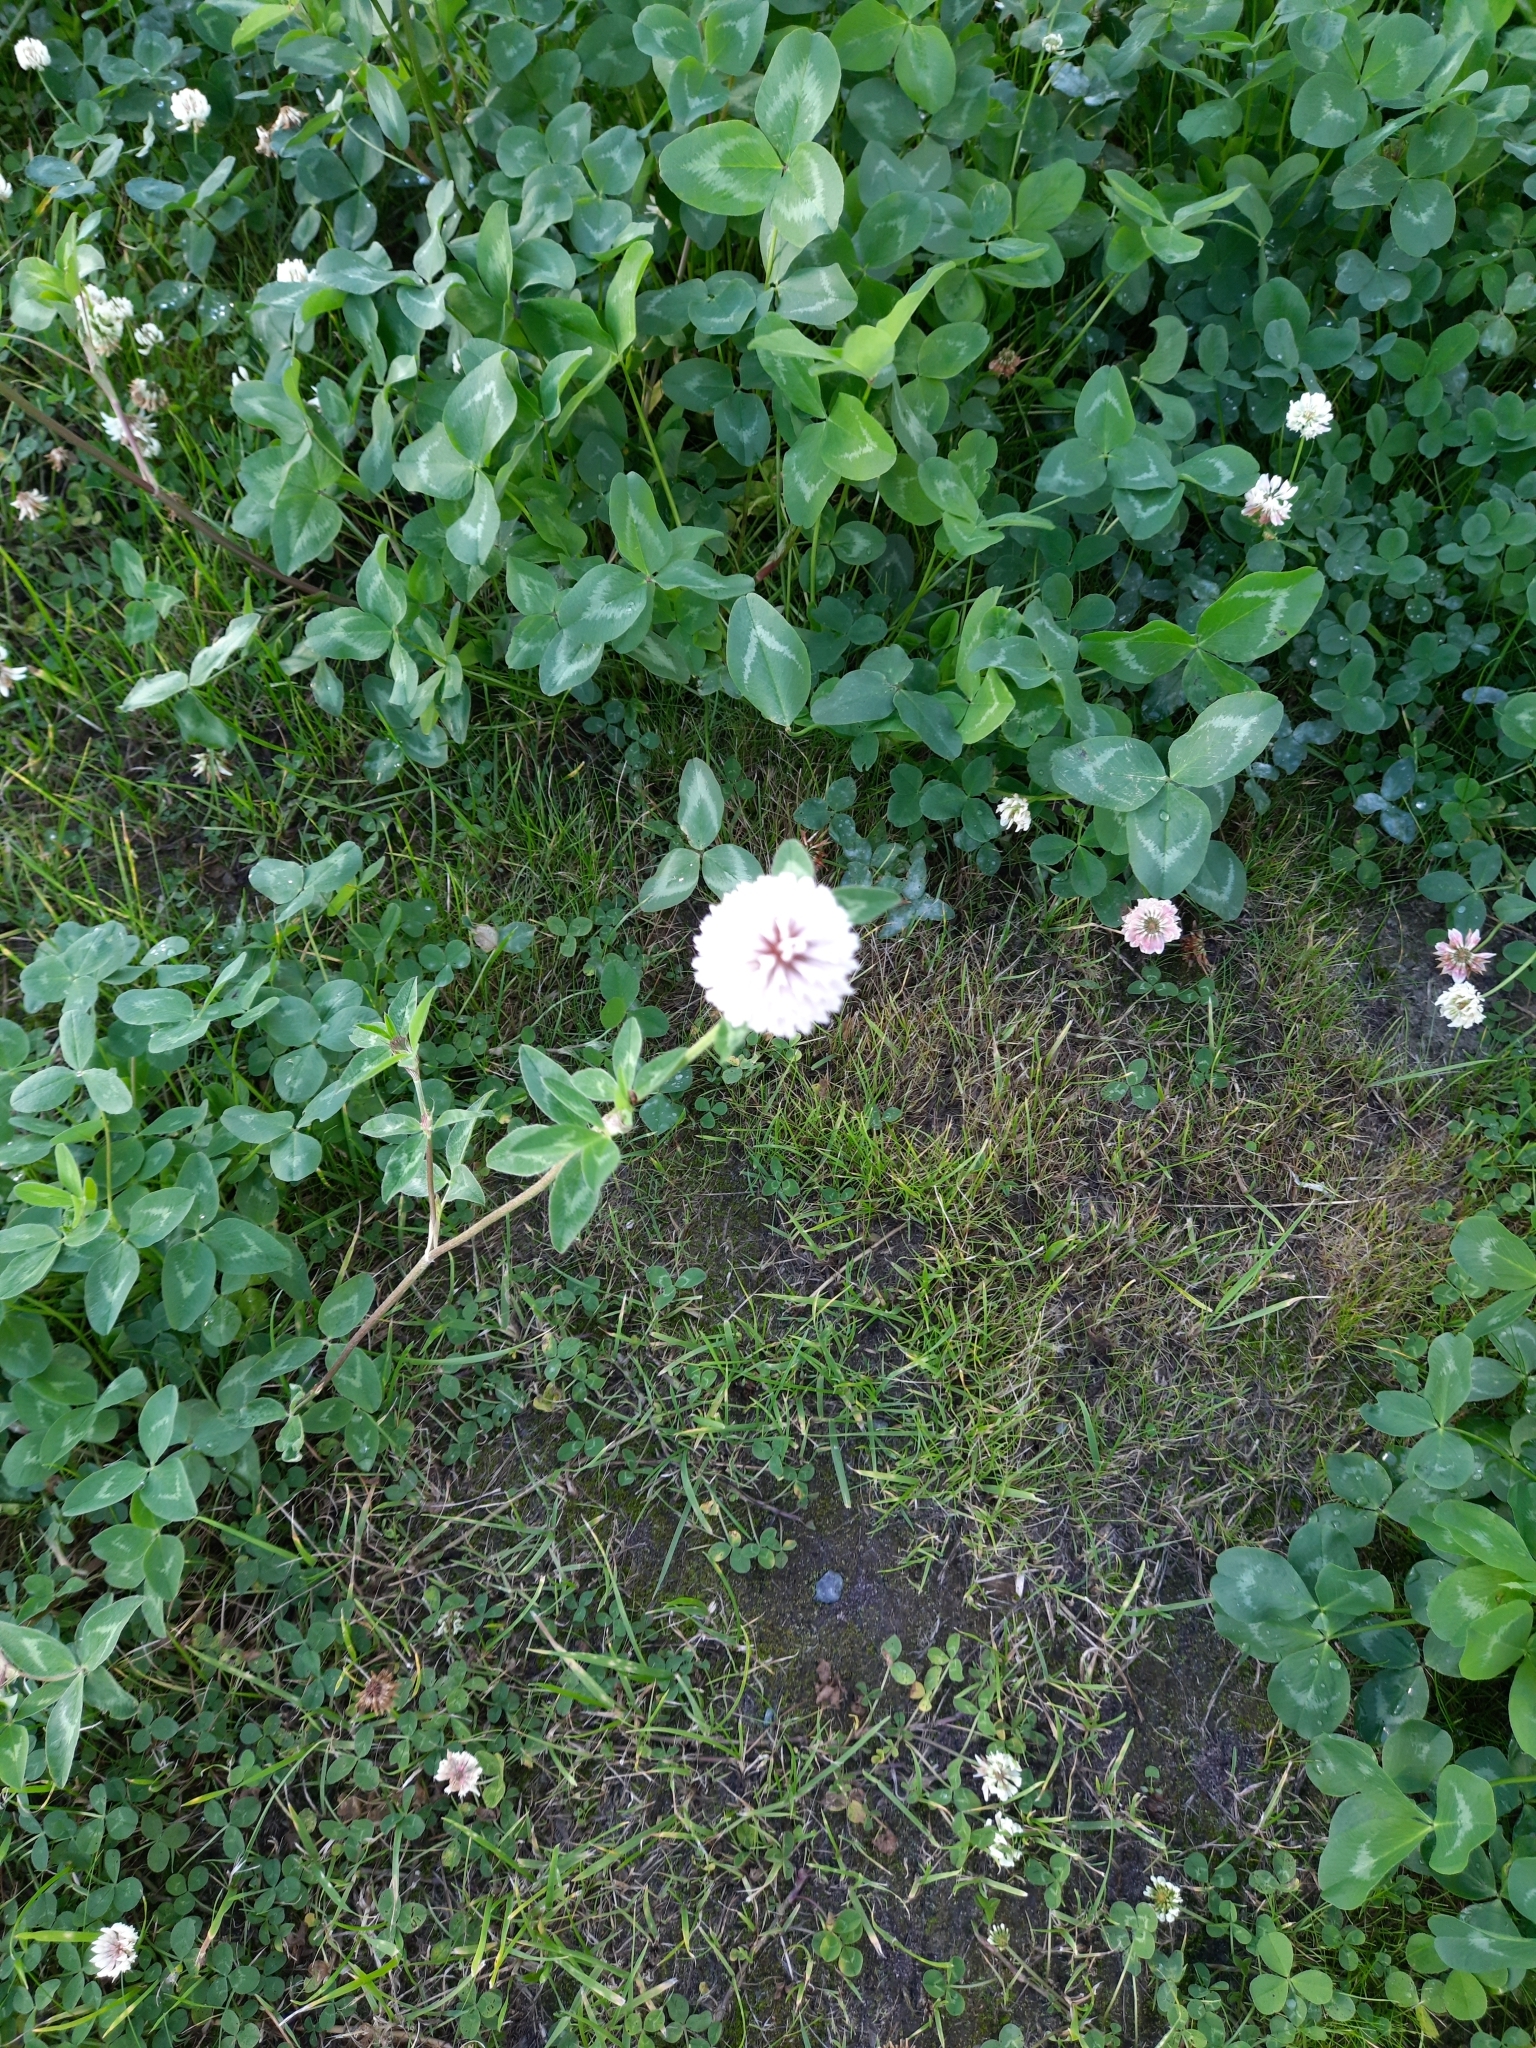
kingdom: Plantae
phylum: Tracheophyta
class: Magnoliopsida
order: Fabales
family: Fabaceae
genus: Trifolium
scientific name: Trifolium pratense
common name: Red clover
